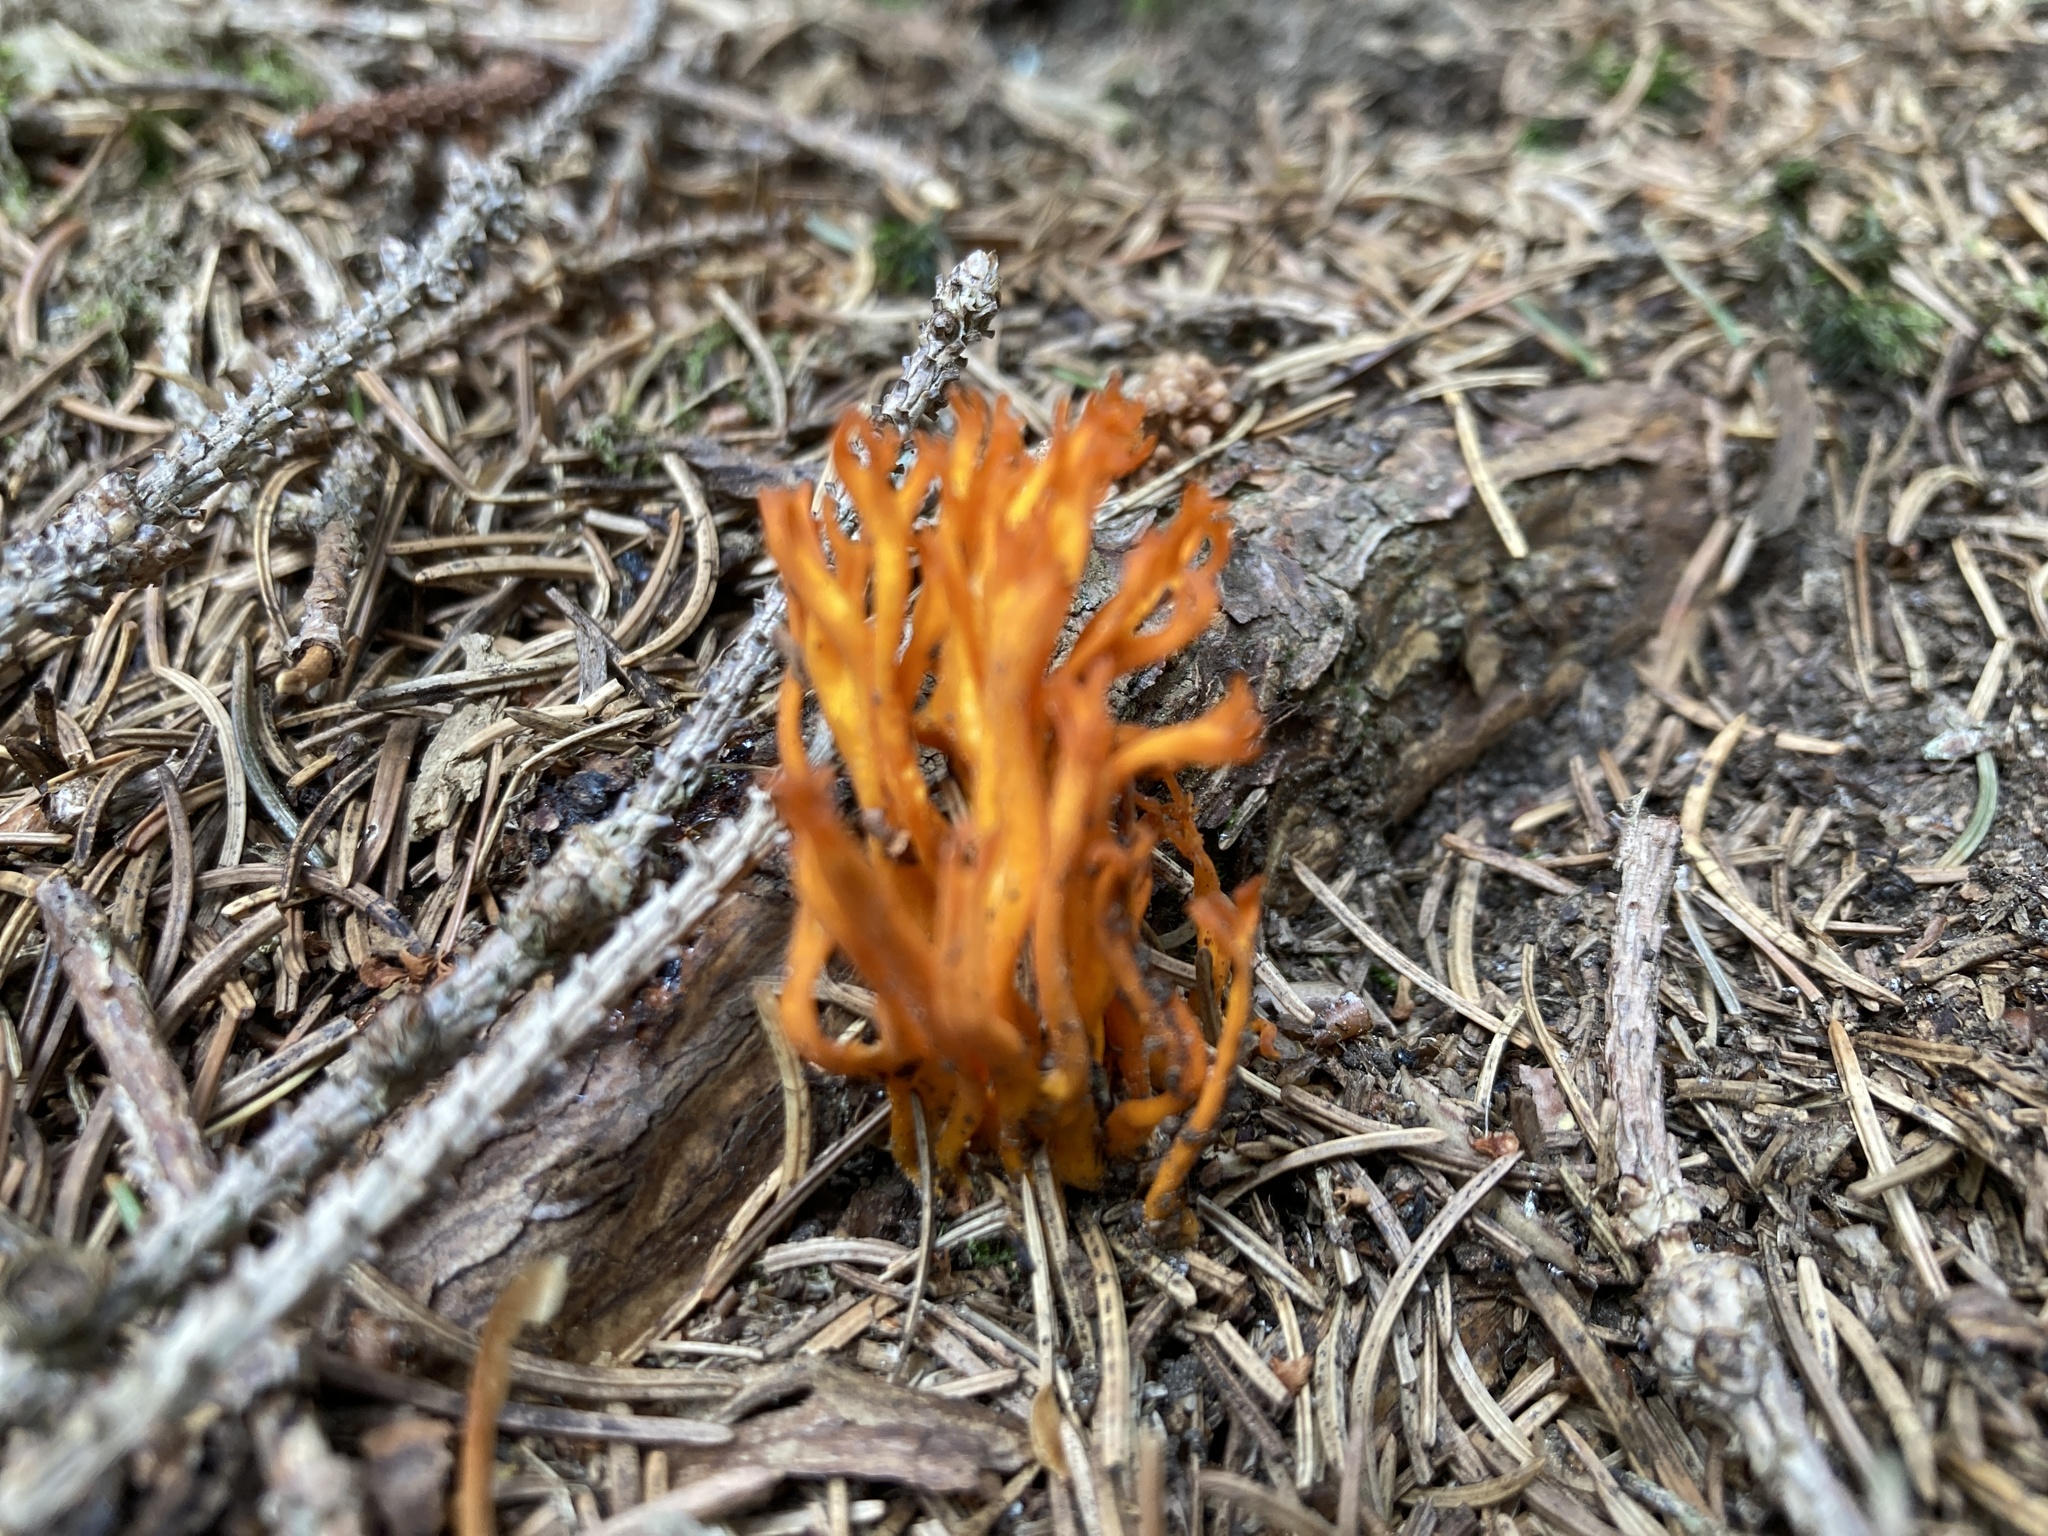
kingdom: Fungi
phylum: Basidiomycota
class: Dacrymycetes
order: Dacrymycetales
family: Dacrymycetaceae
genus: Calocera
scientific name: Calocera viscosa
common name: Yellow stagshorn
